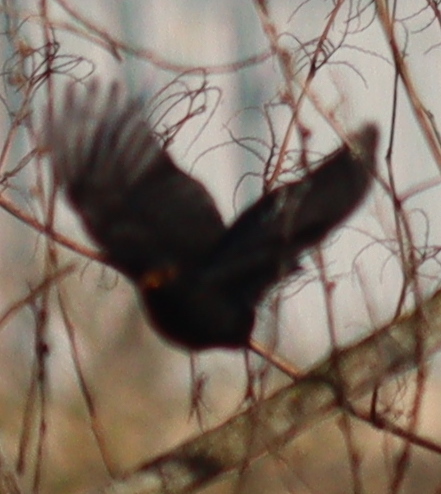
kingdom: Animalia
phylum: Chordata
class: Aves
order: Passeriformes
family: Turdidae
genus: Turdus
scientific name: Turdus merula
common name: Common blackbird
